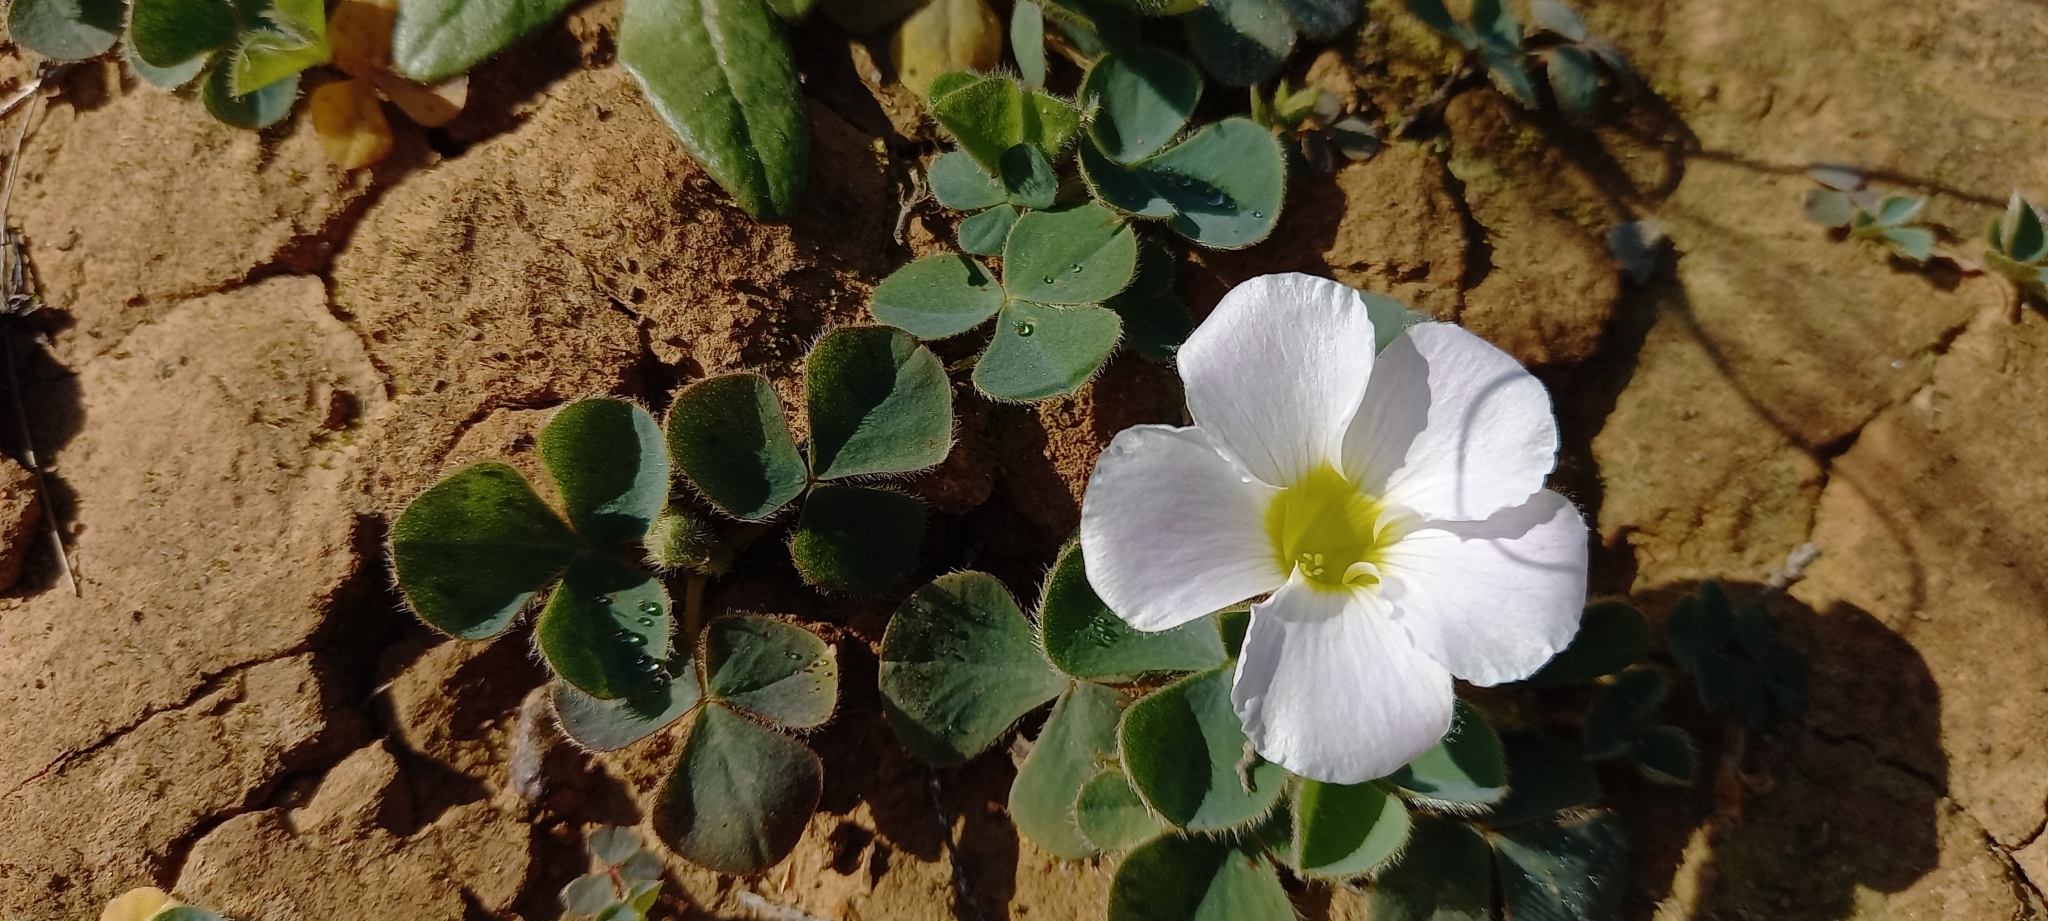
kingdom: Plantae
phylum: Tracheophyta
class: Magnoliopsida
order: Oxalidales
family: Oxalidaceae
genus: Oxalis
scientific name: Oxalis purpurea
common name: Purple woodsorrel
